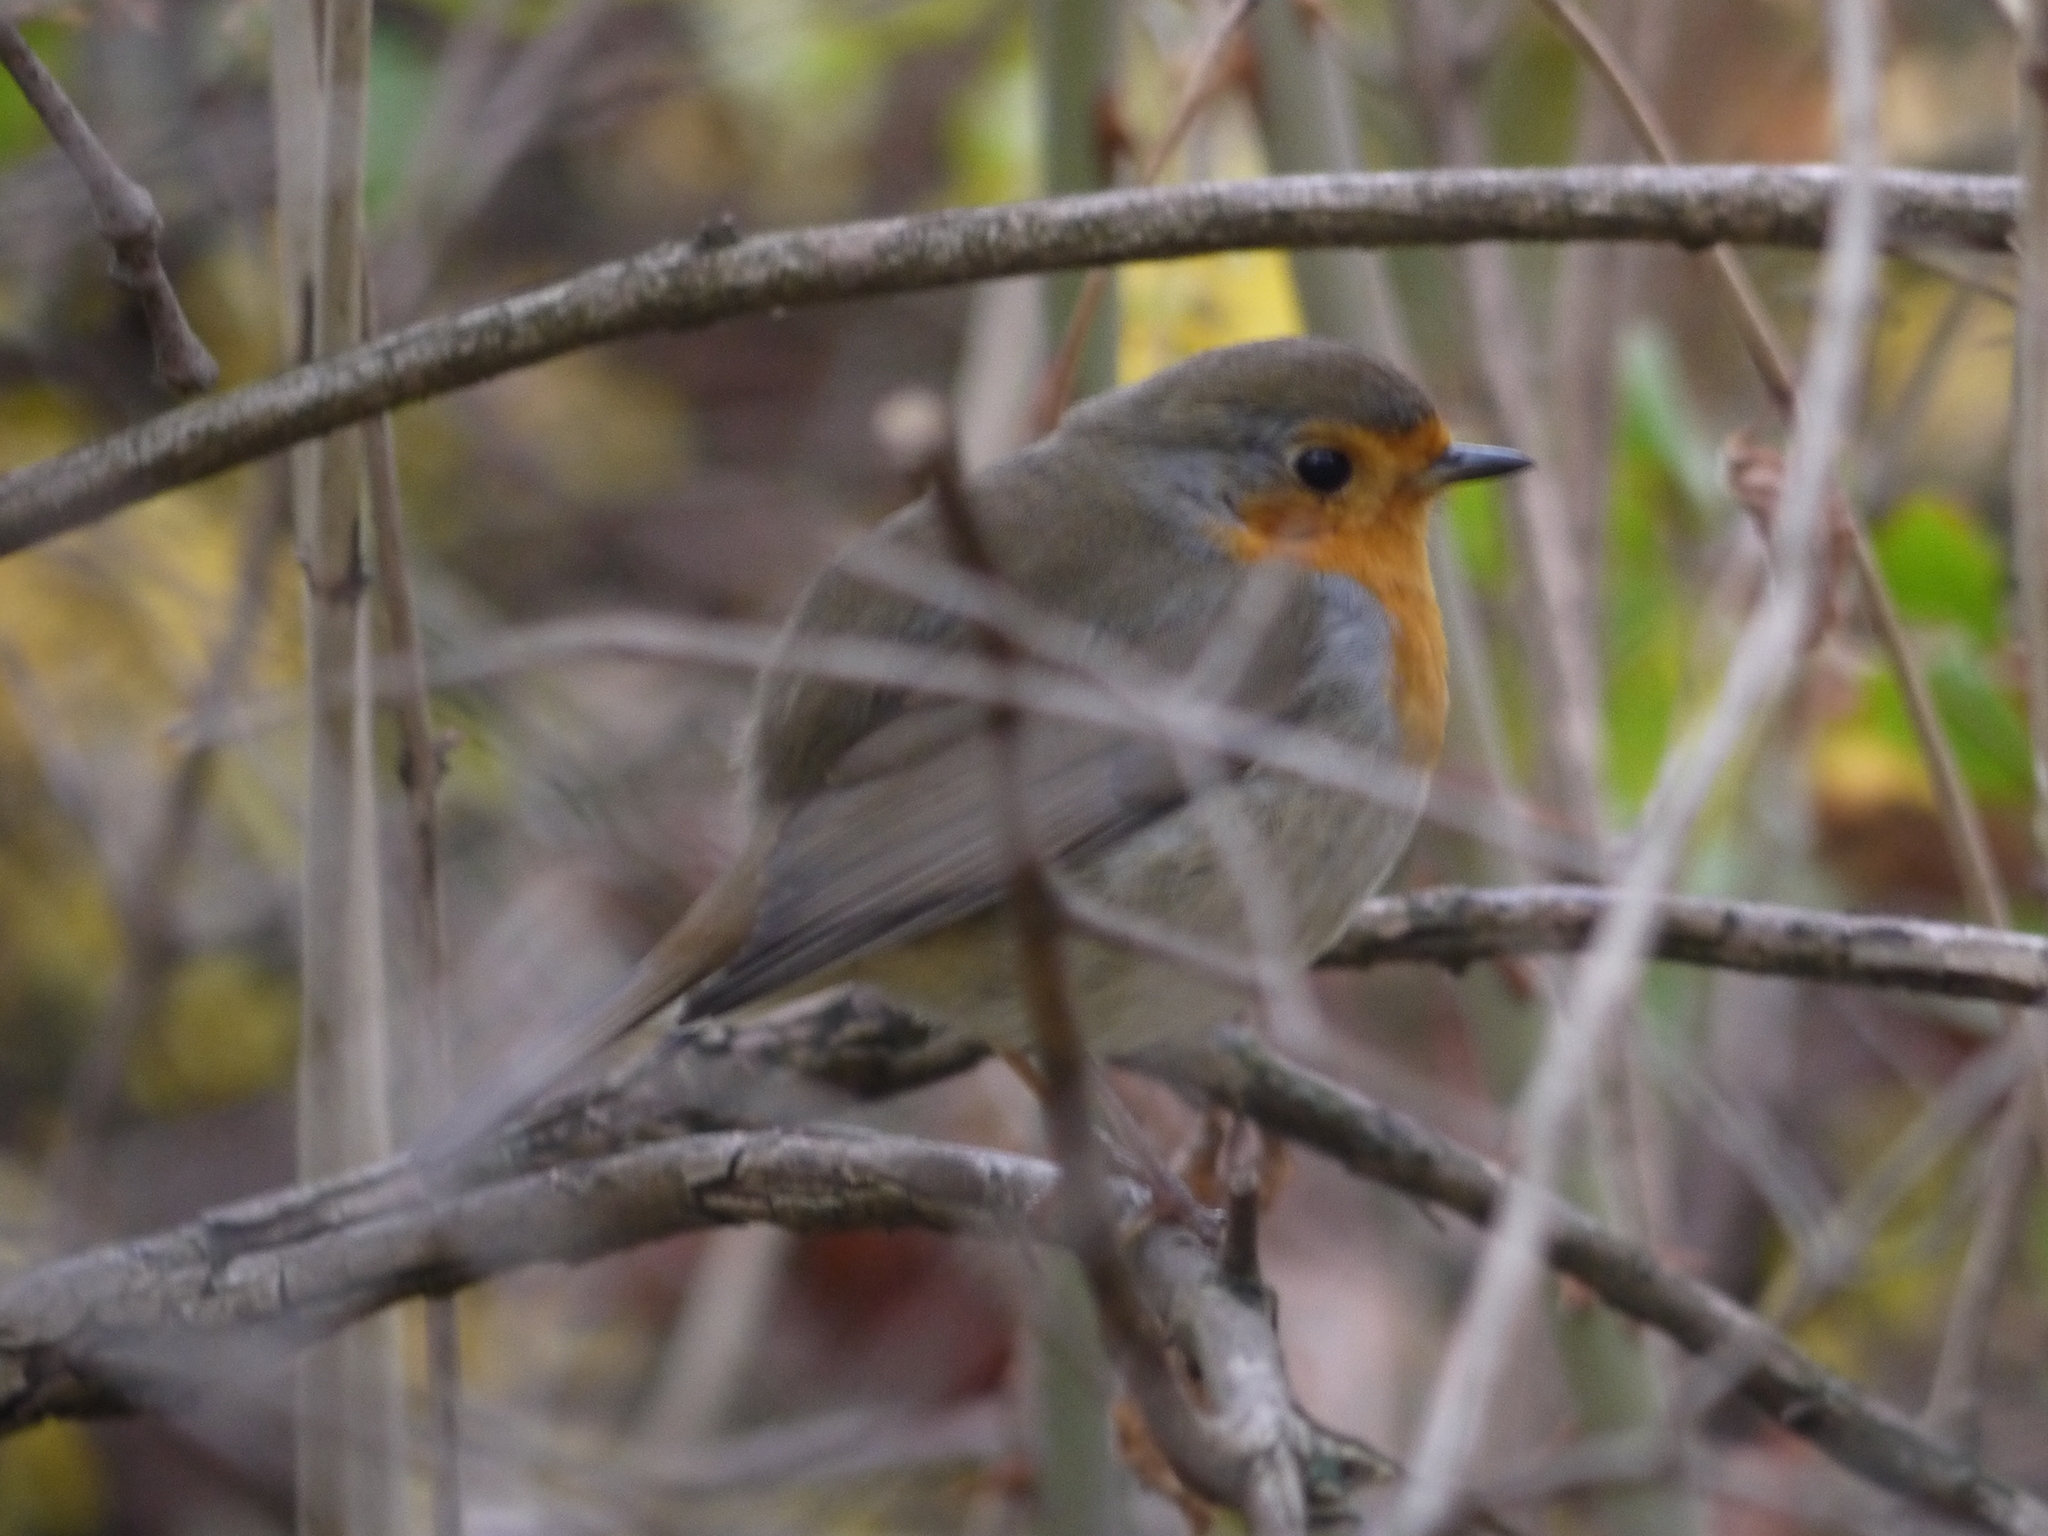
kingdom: Animalia
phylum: Chordata
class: Aves
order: Passeriformes
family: Muscicapidae
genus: Erithacus
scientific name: Erithacus rubecula
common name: European robin
